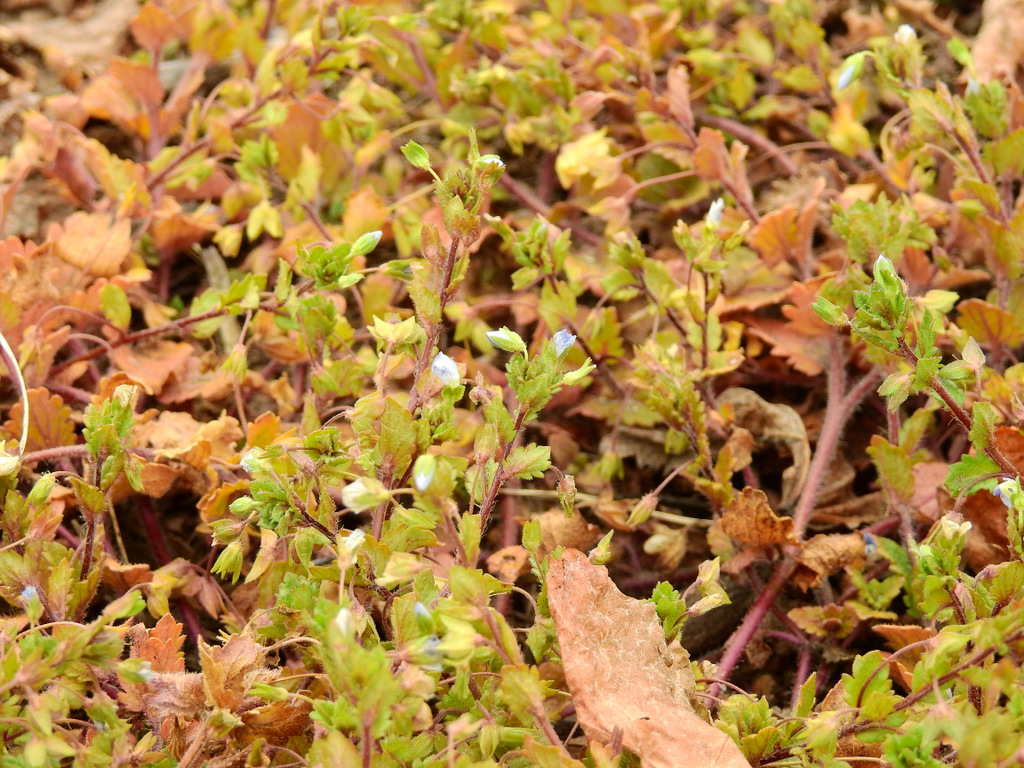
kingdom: Plantae
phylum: Tracheophyta
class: Magnoliopsida
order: Lamiales
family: Plantaginaceae
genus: Veronica
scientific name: Veronica persica
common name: Common field-speedwell
